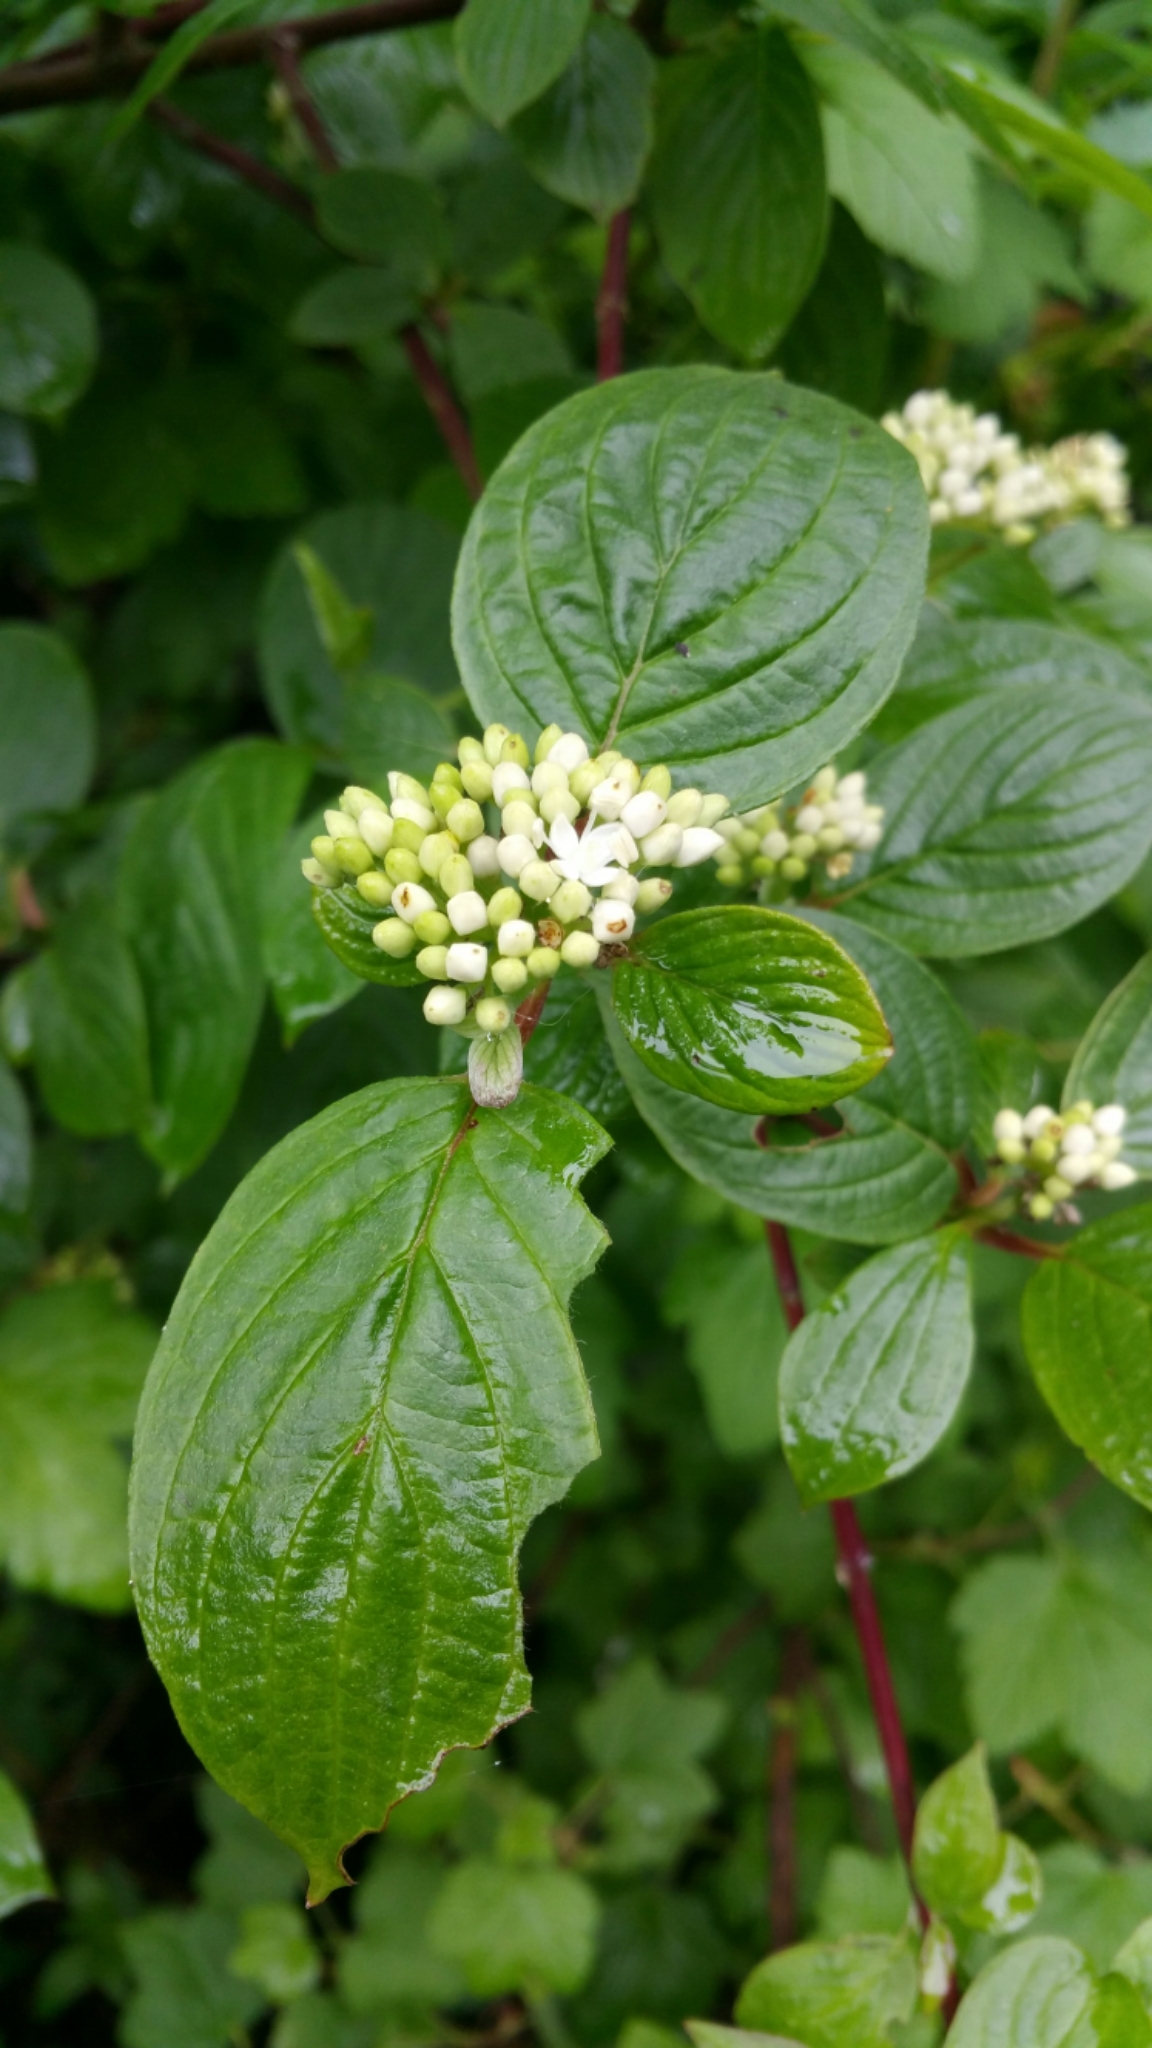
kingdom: Plantae
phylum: Tracheophyta
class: Magnoliopsida
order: Cornales
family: Cornaceae
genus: Cornus
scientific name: Cornus sericea
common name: Red-osier dogwood
